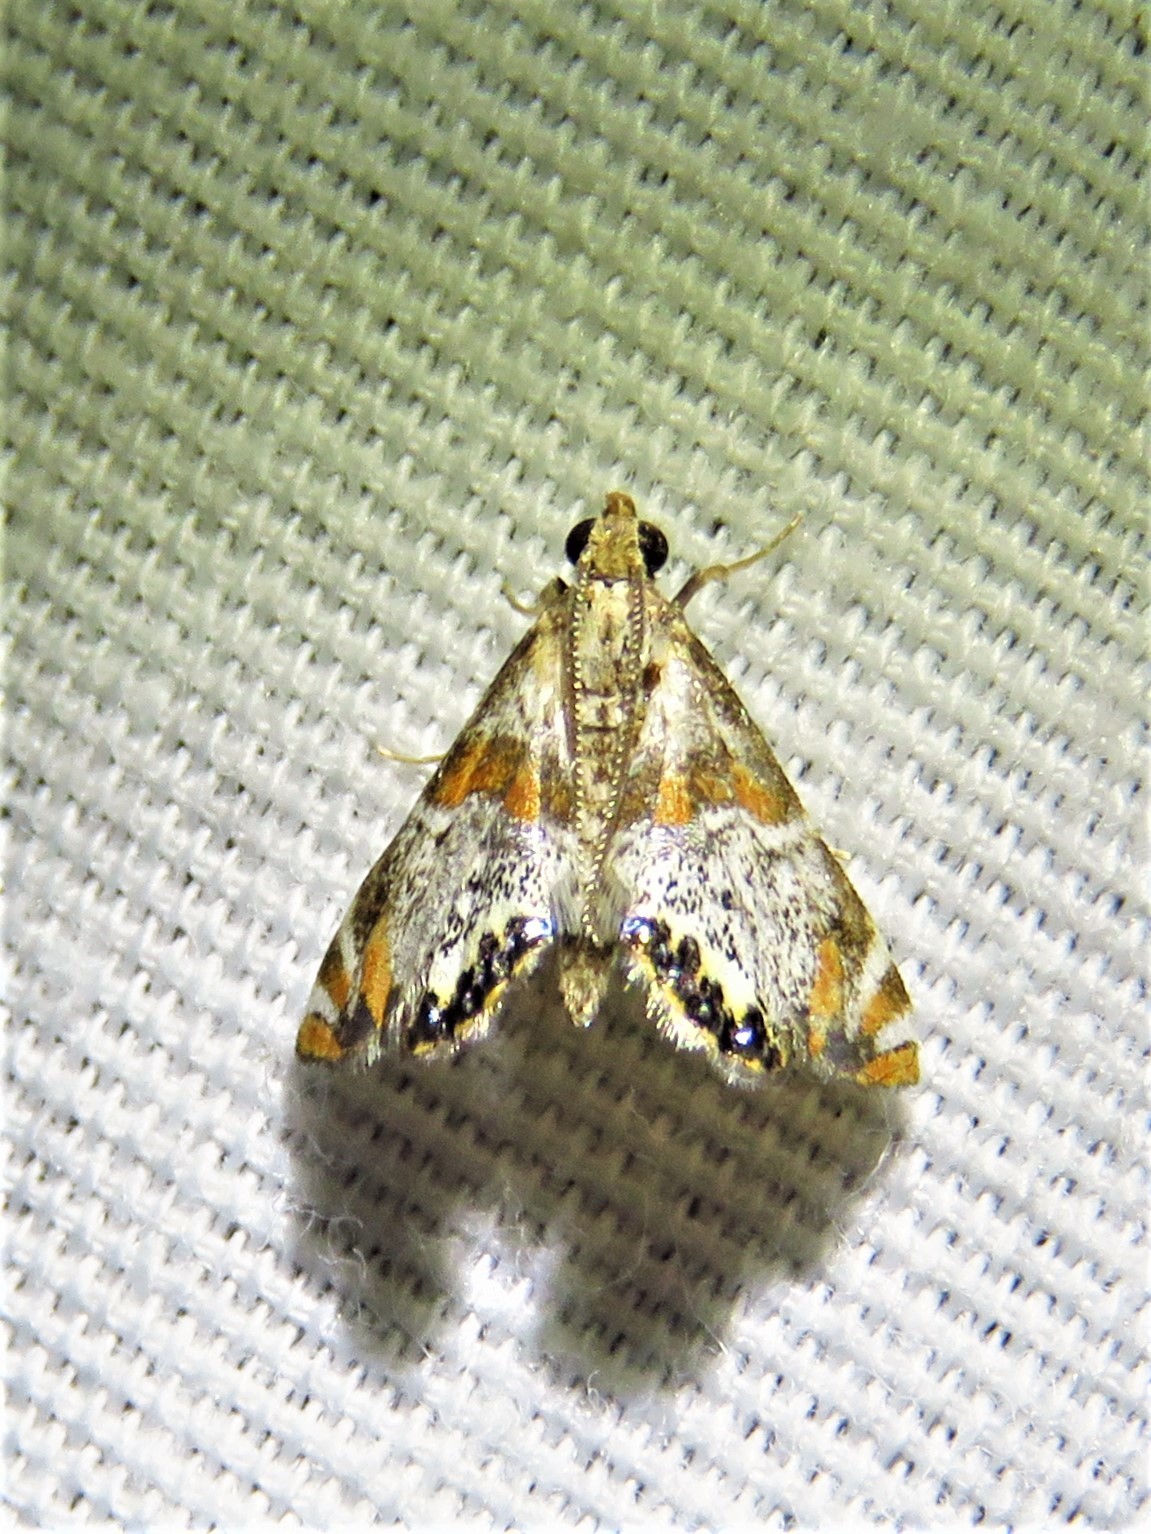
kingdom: Animalia
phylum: Arthropoda
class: Insecta
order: Lepidoptera
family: Crambidae
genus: Petrophila
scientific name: Petrophila jaliscalis
